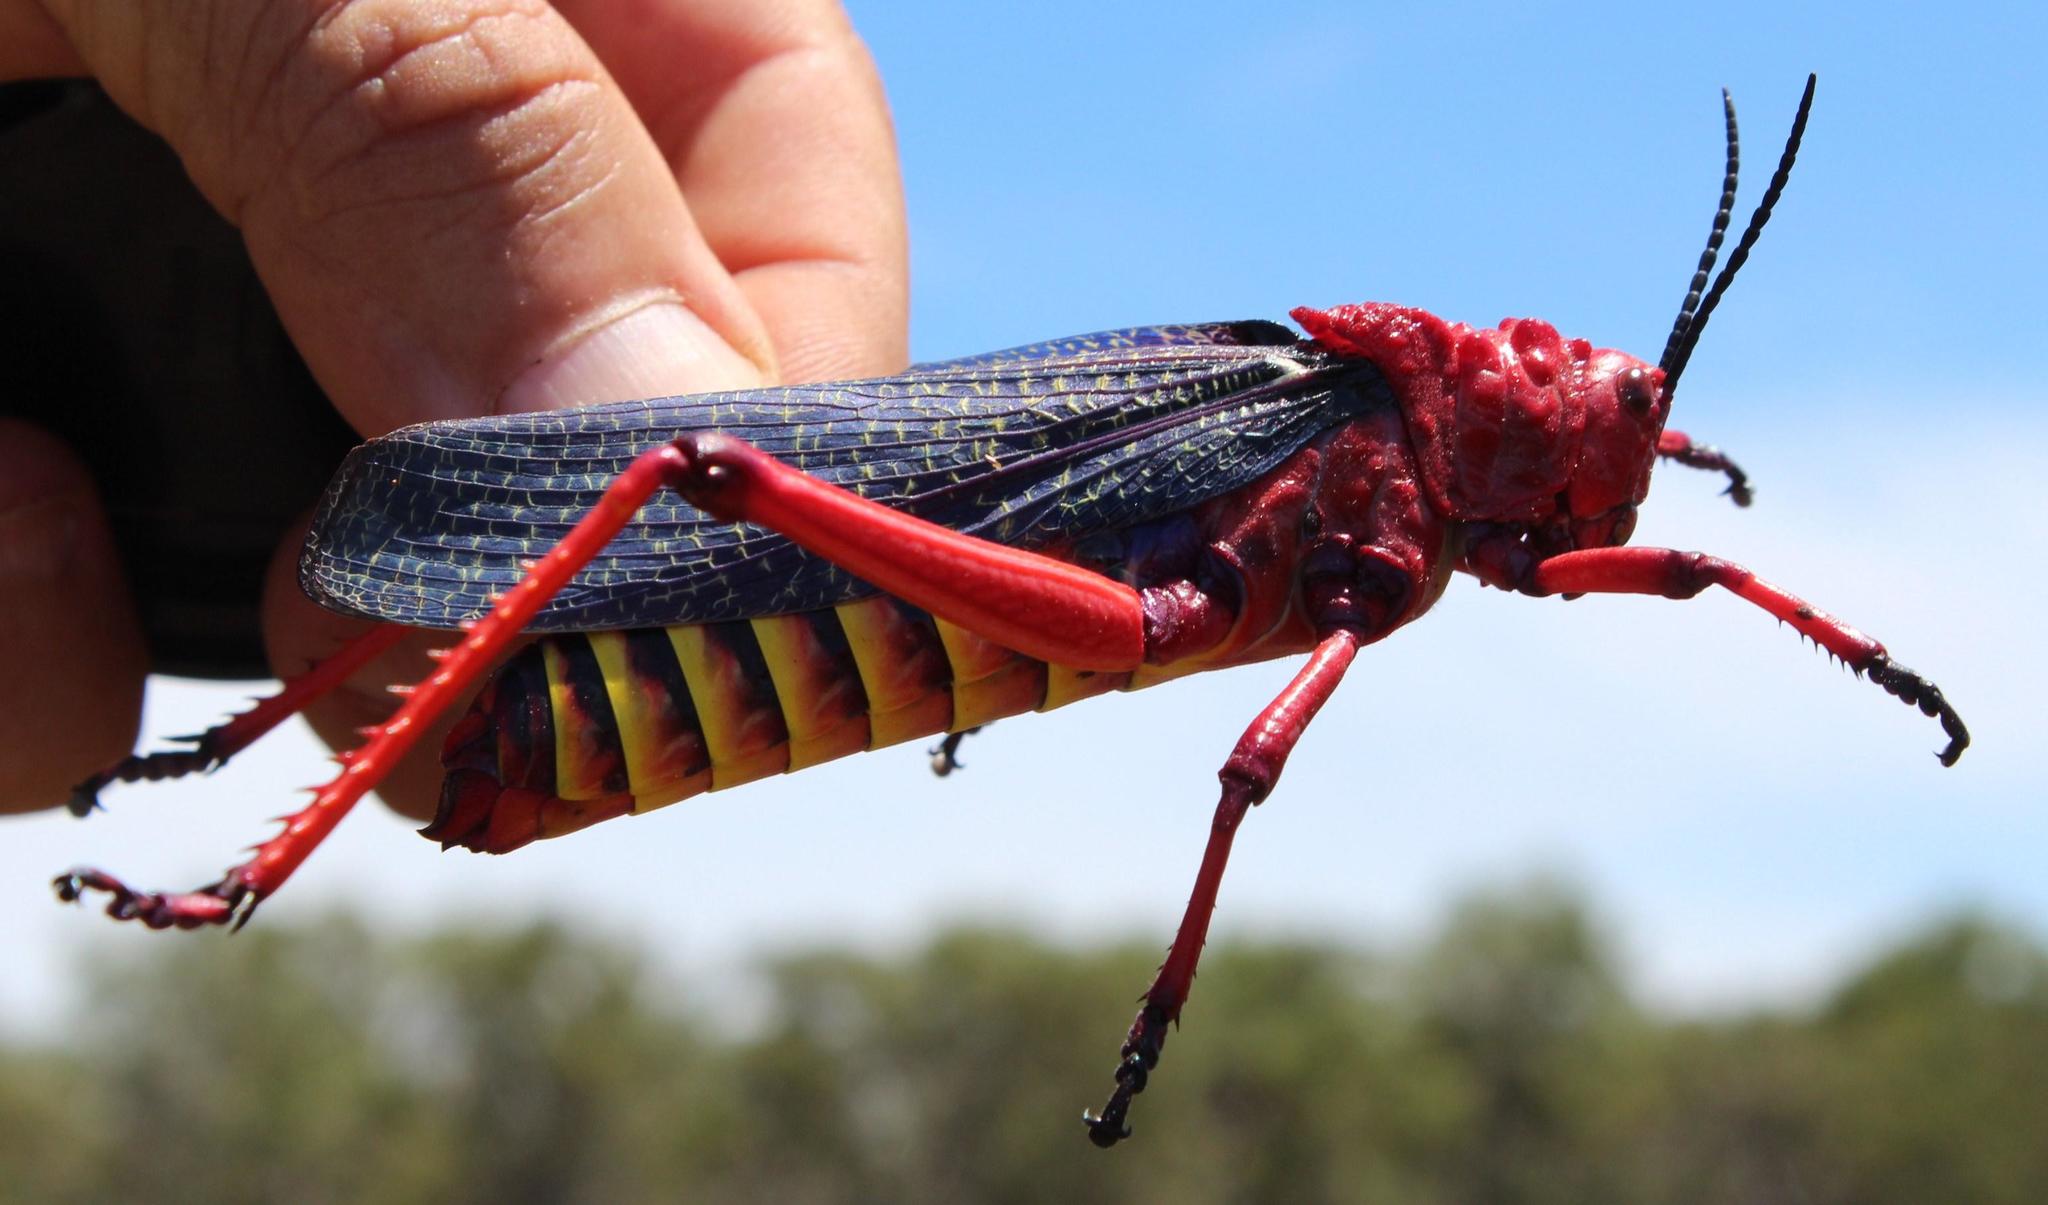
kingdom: Animalia
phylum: Arthropoda
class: Insecta
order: Orthoptera
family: Pyrgomorphidae
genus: Phymateus
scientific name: Phymateus morbillosus
